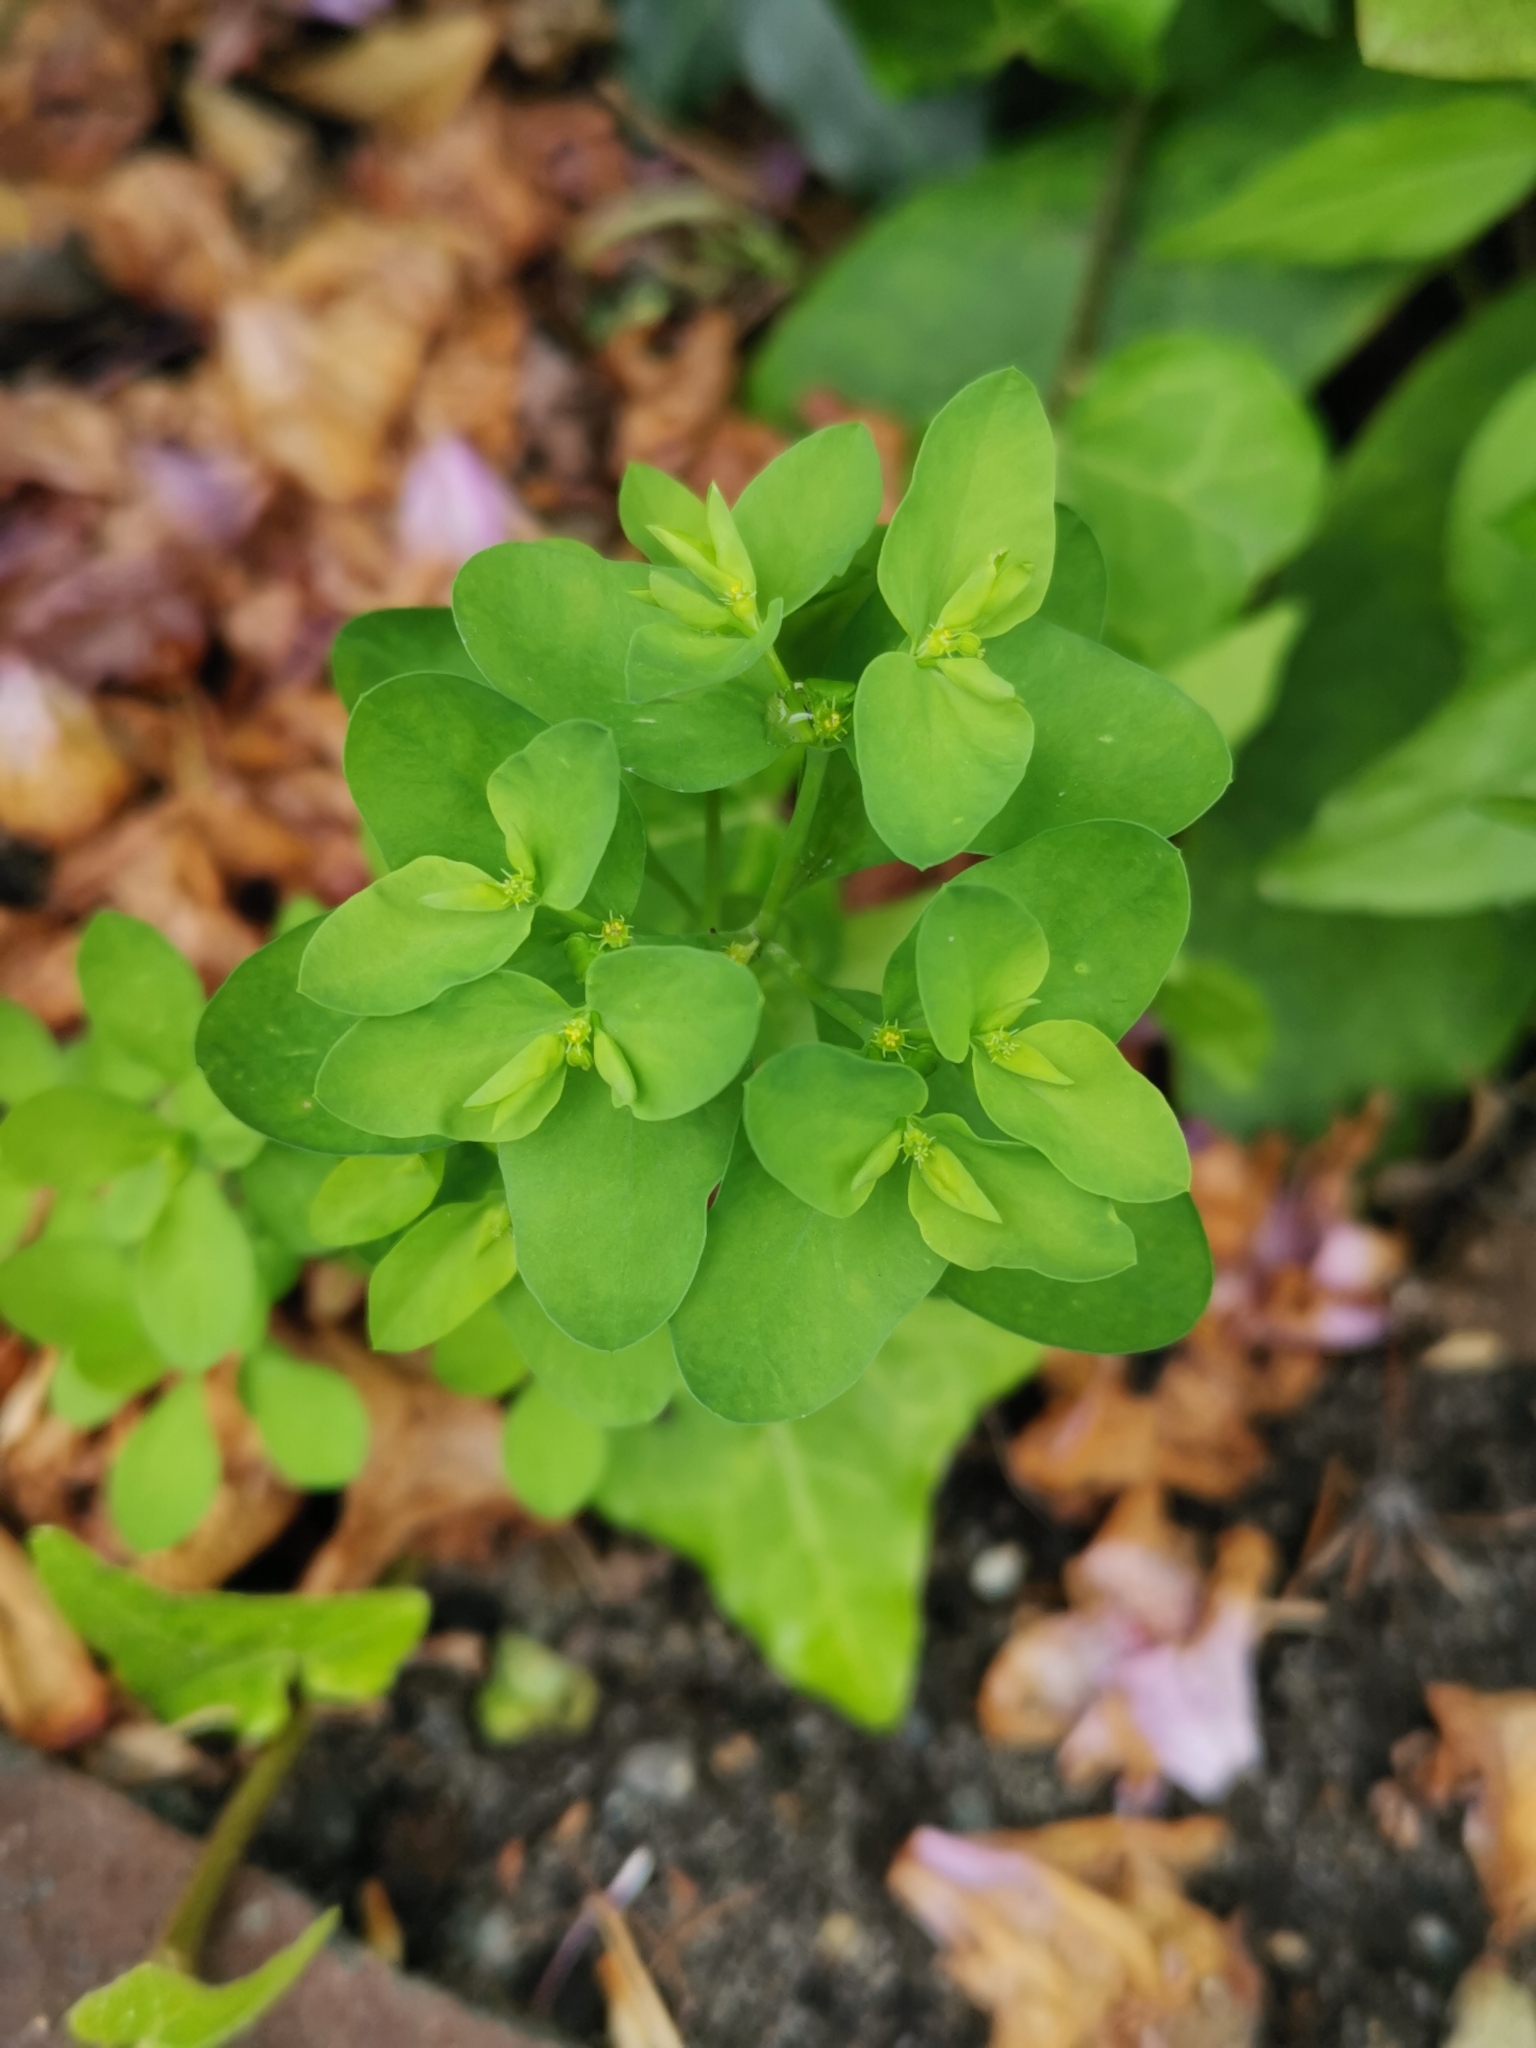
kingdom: Plantae
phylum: Tracheophyta
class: Magnoliopsida
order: Malpighiales
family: Euphorbiaceae
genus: Euphorbia
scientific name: Euphorbia peplus
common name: Petty spurge
